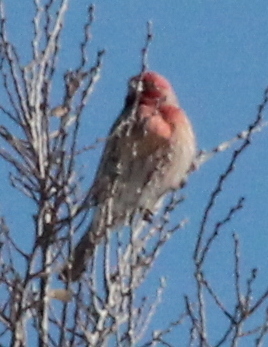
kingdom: Animalia
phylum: Chordata
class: Aves
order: Passeriformes
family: Fringillidae
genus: Haemorhous
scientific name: Haemorhous mexicanus
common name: House finch
